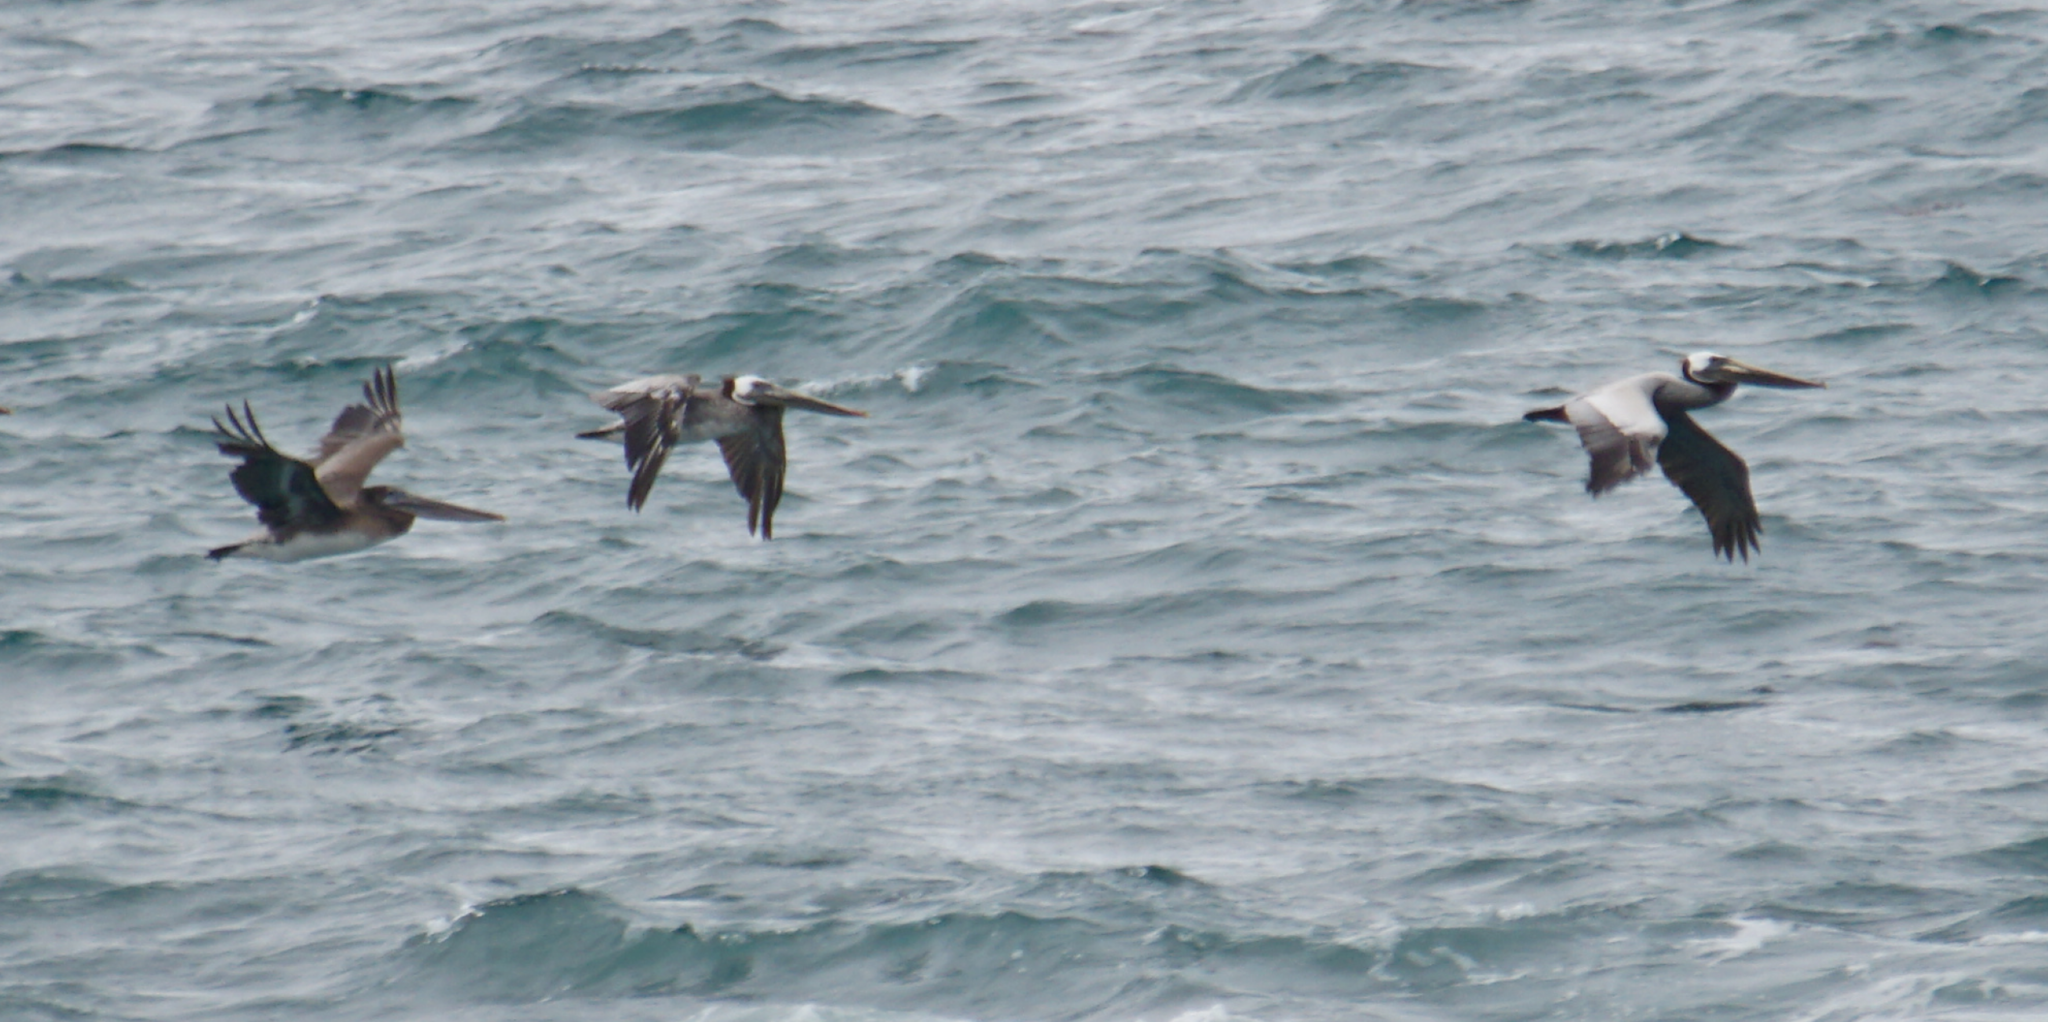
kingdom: Animalia
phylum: Chordata
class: Aves
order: Pelecaniformes
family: Pelecanidae
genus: Pelecanus
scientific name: Pelecanus occidentalis
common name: Brown pelican
